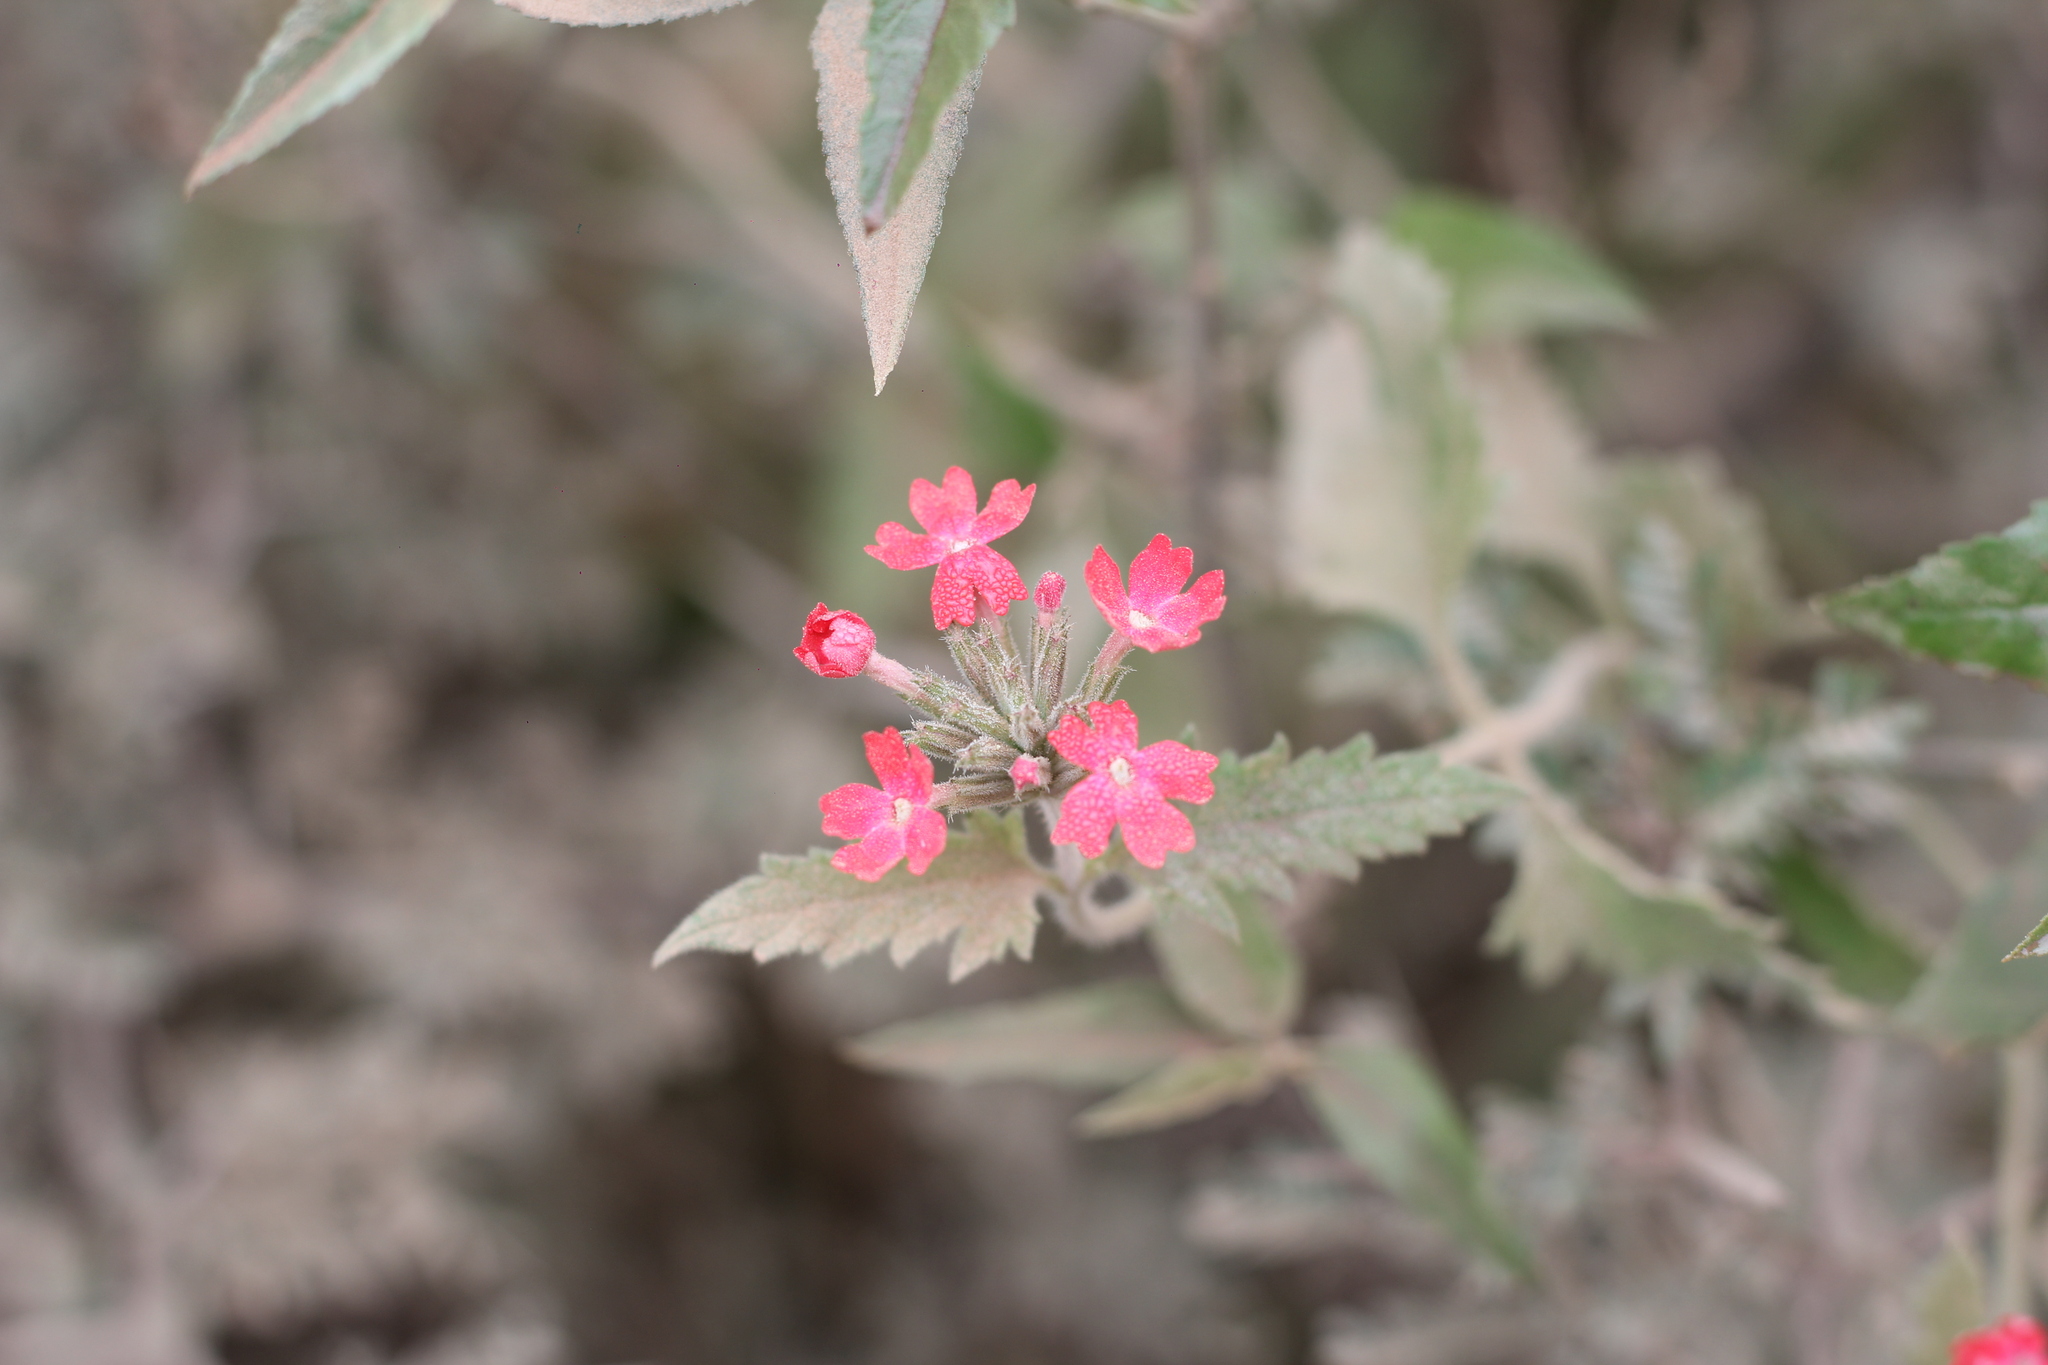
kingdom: Plantae
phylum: Tracheophyta
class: Magnoliopsida
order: Lamiales
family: Verbenaceae
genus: Verbena
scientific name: Verbena tweedieana
